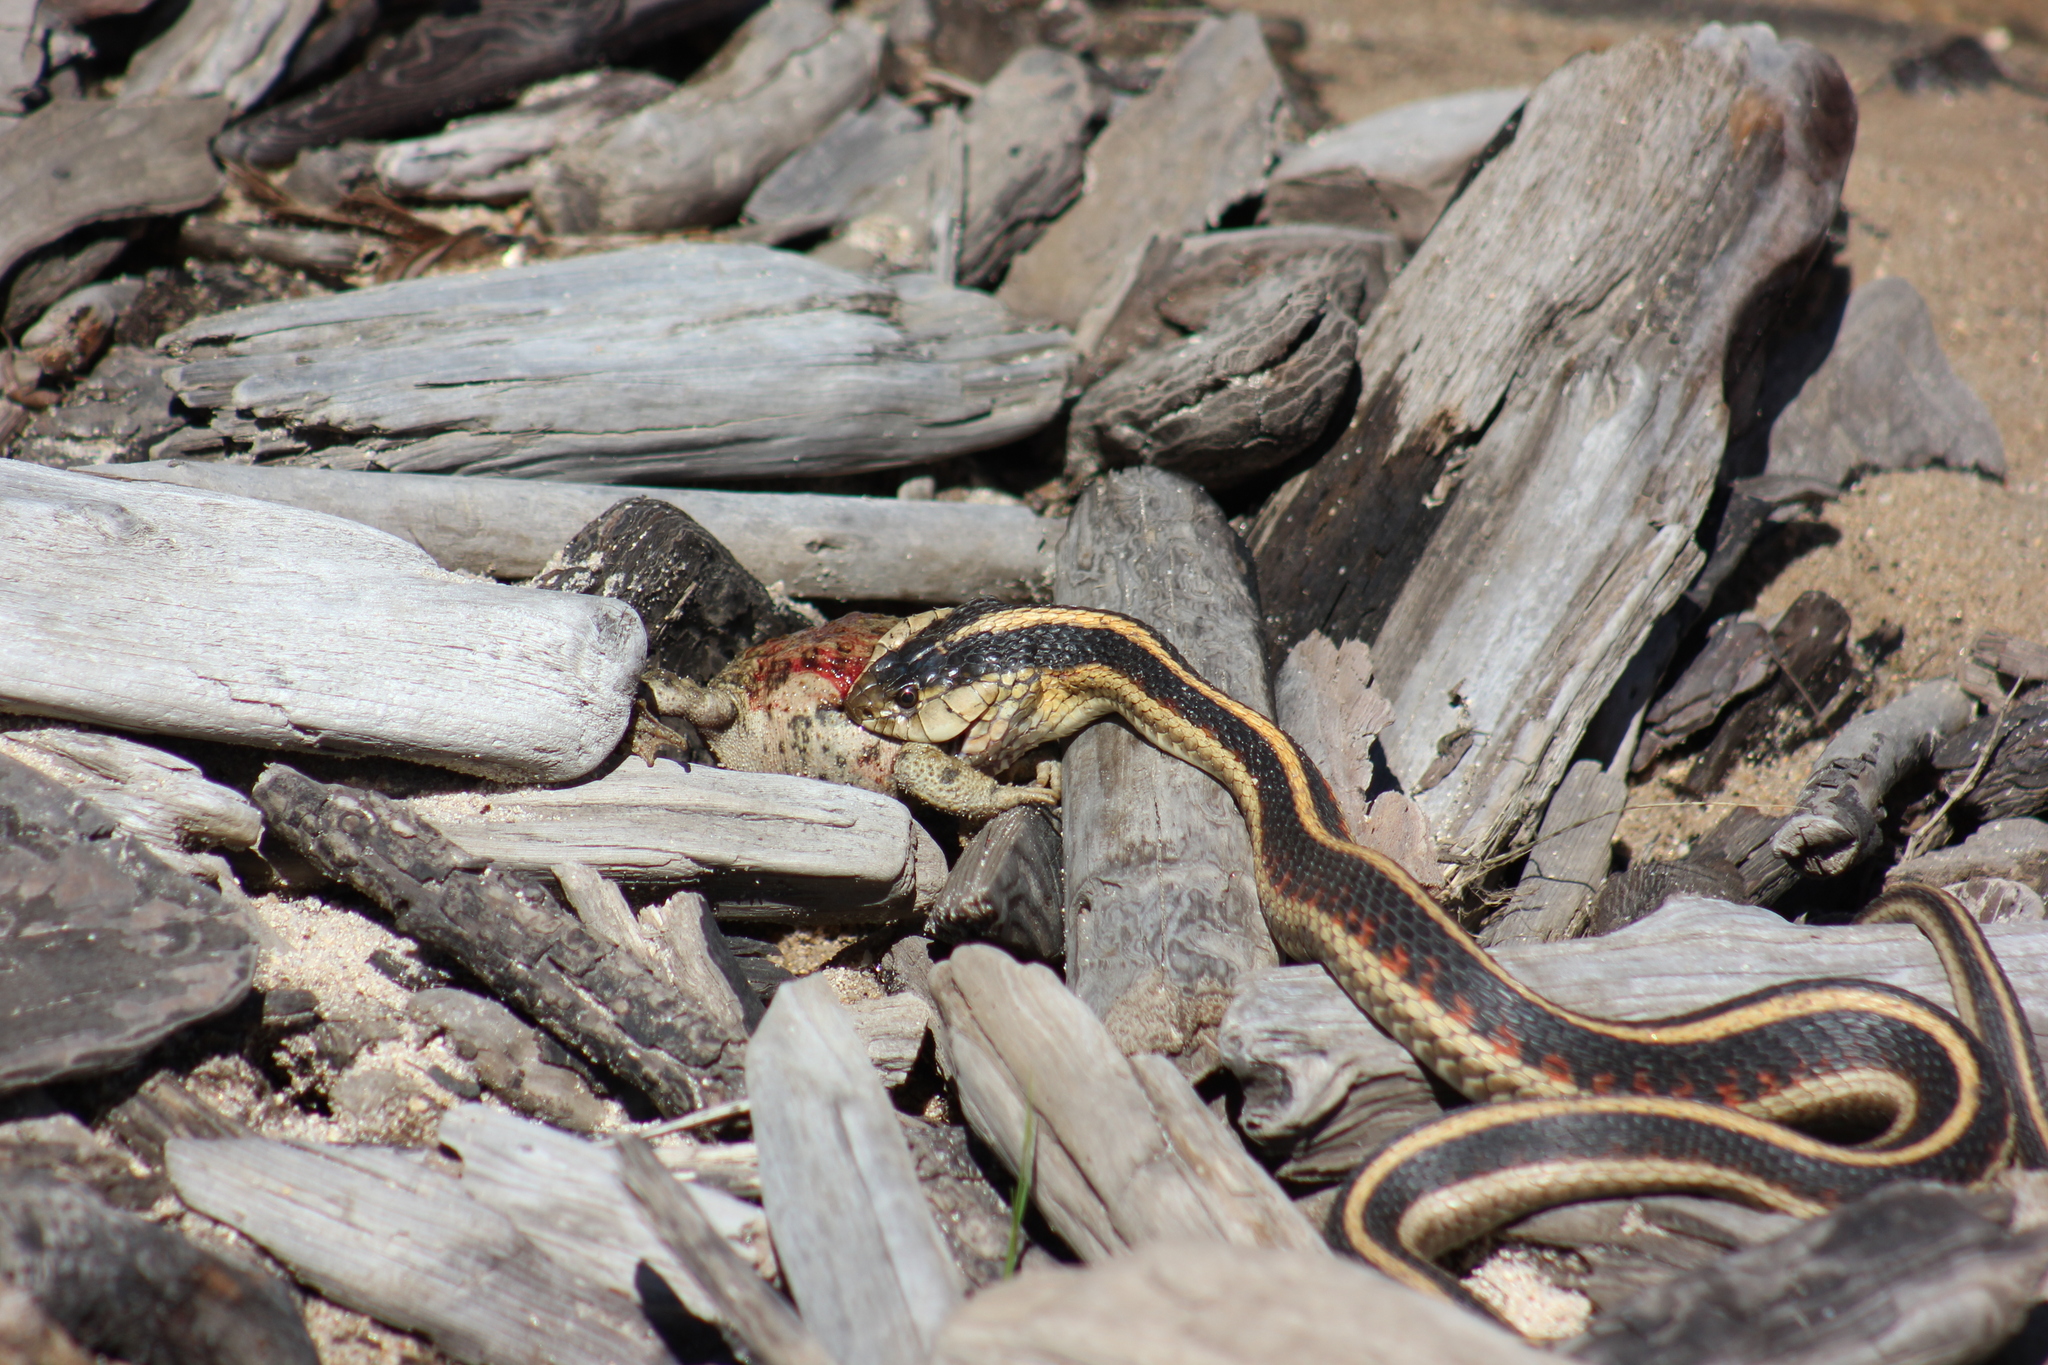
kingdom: Animalia
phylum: Chordata
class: Squamata
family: Colubridae
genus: Thamnophis
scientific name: Thamnophis sirtalis
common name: Common garter snake
